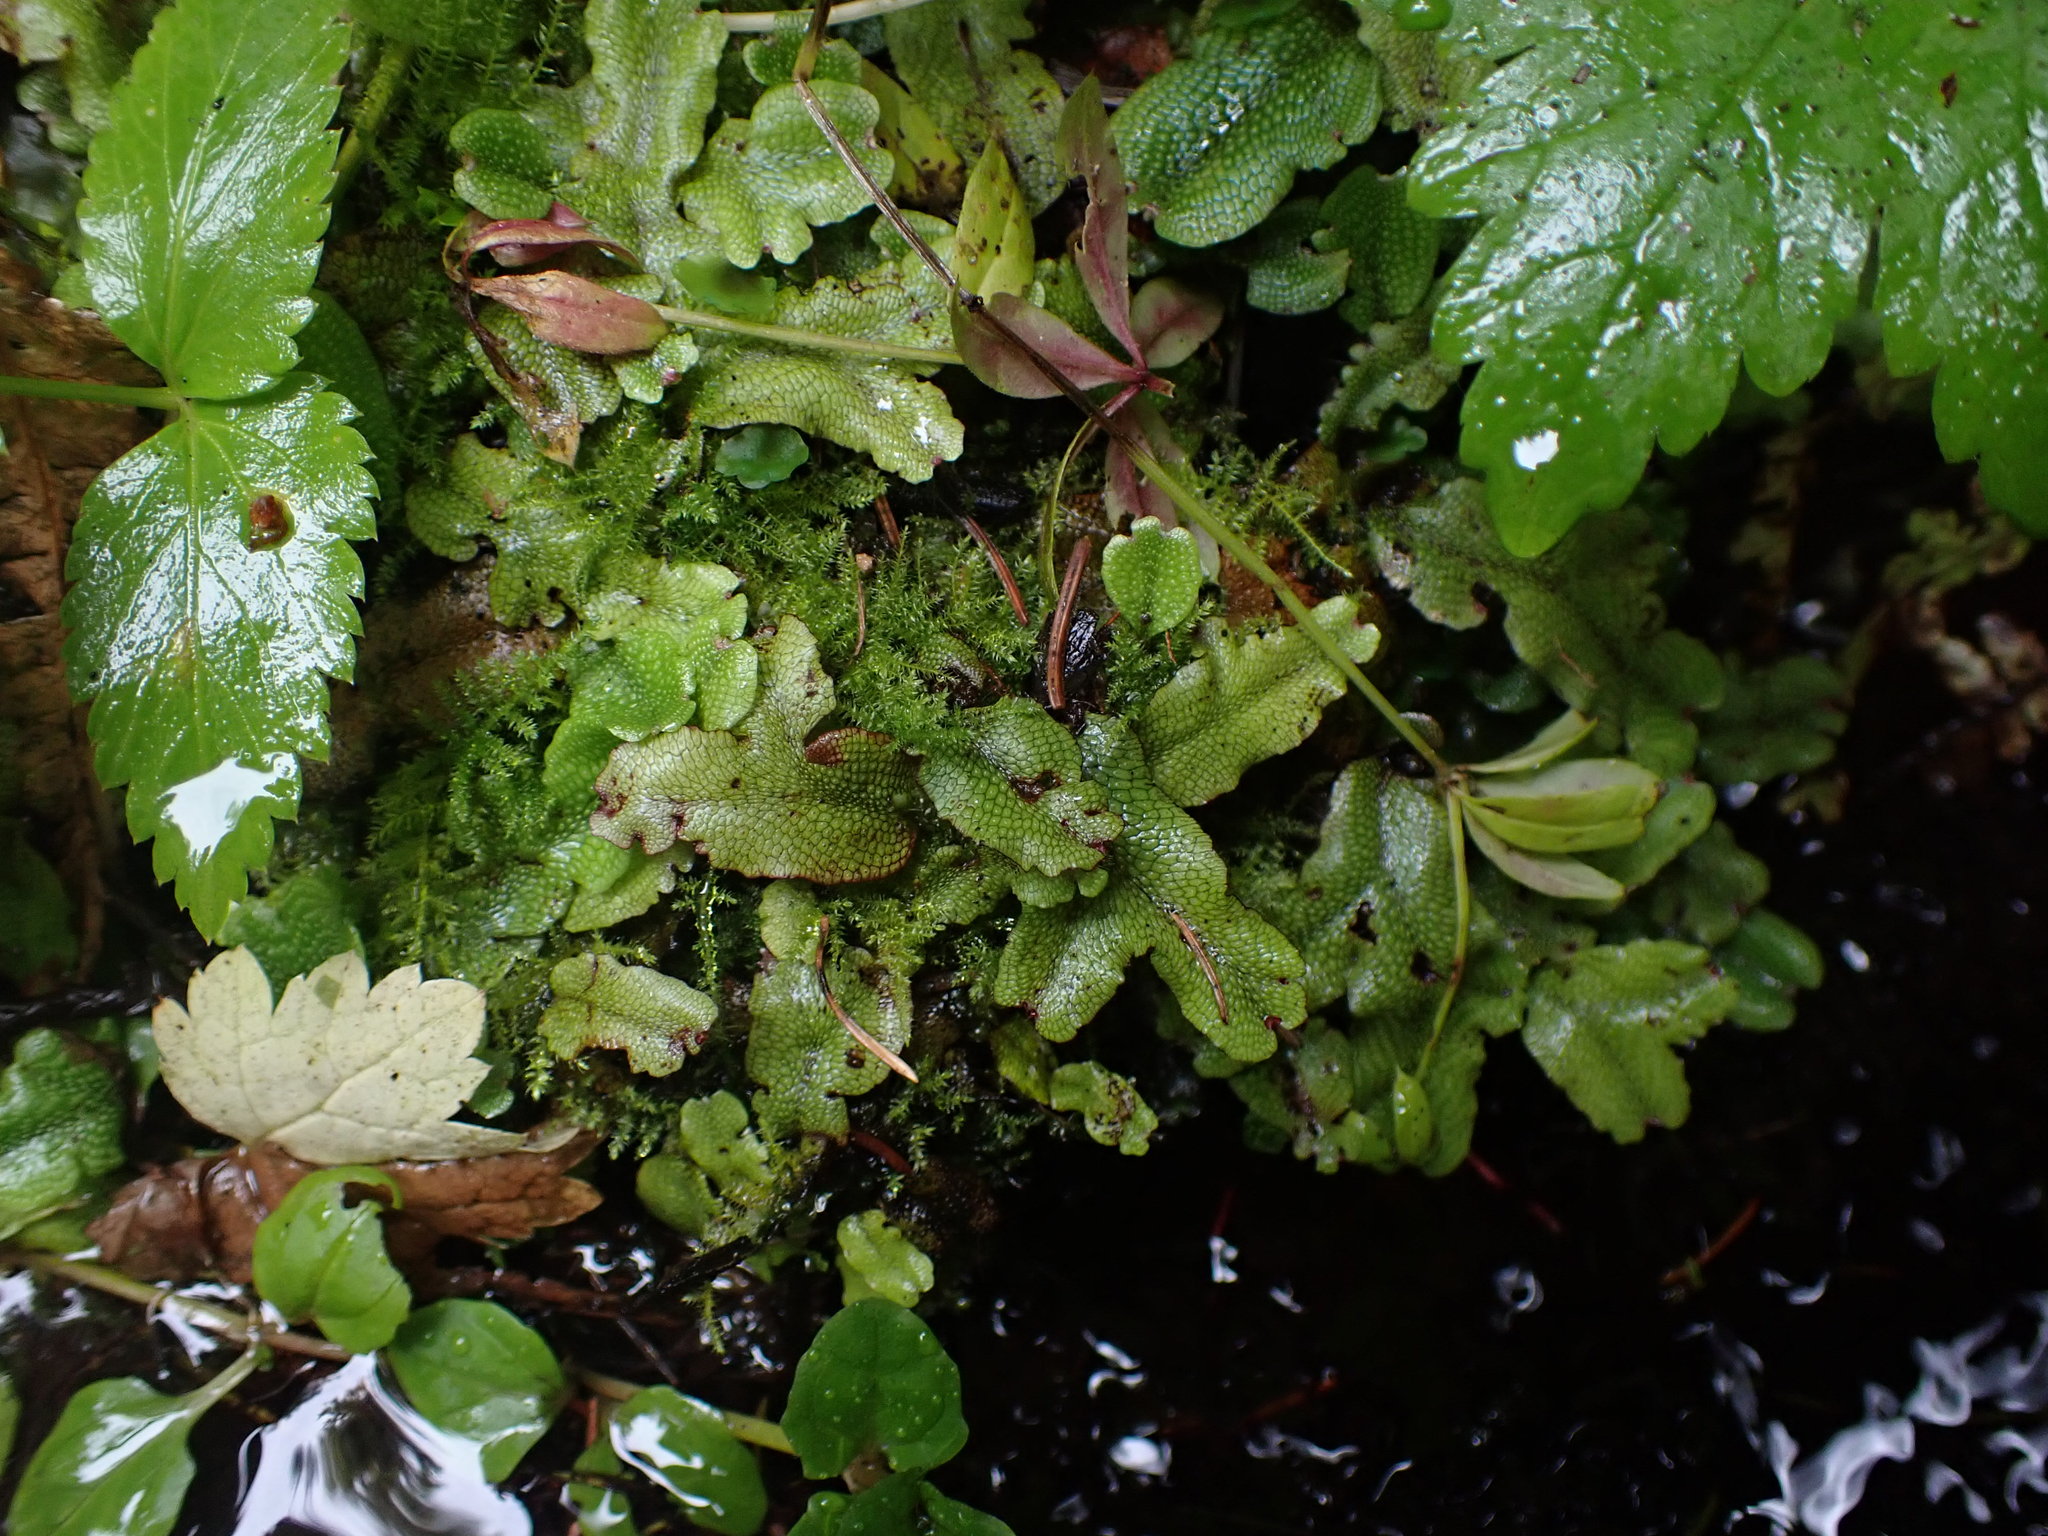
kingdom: Plantae
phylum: Marchantiophyta
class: Marchantiopsida
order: Marchantiales
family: Conocephalaceae
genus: Conocephalum
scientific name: Conocephalum salebrosum
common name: Cat-tongue liverwort
